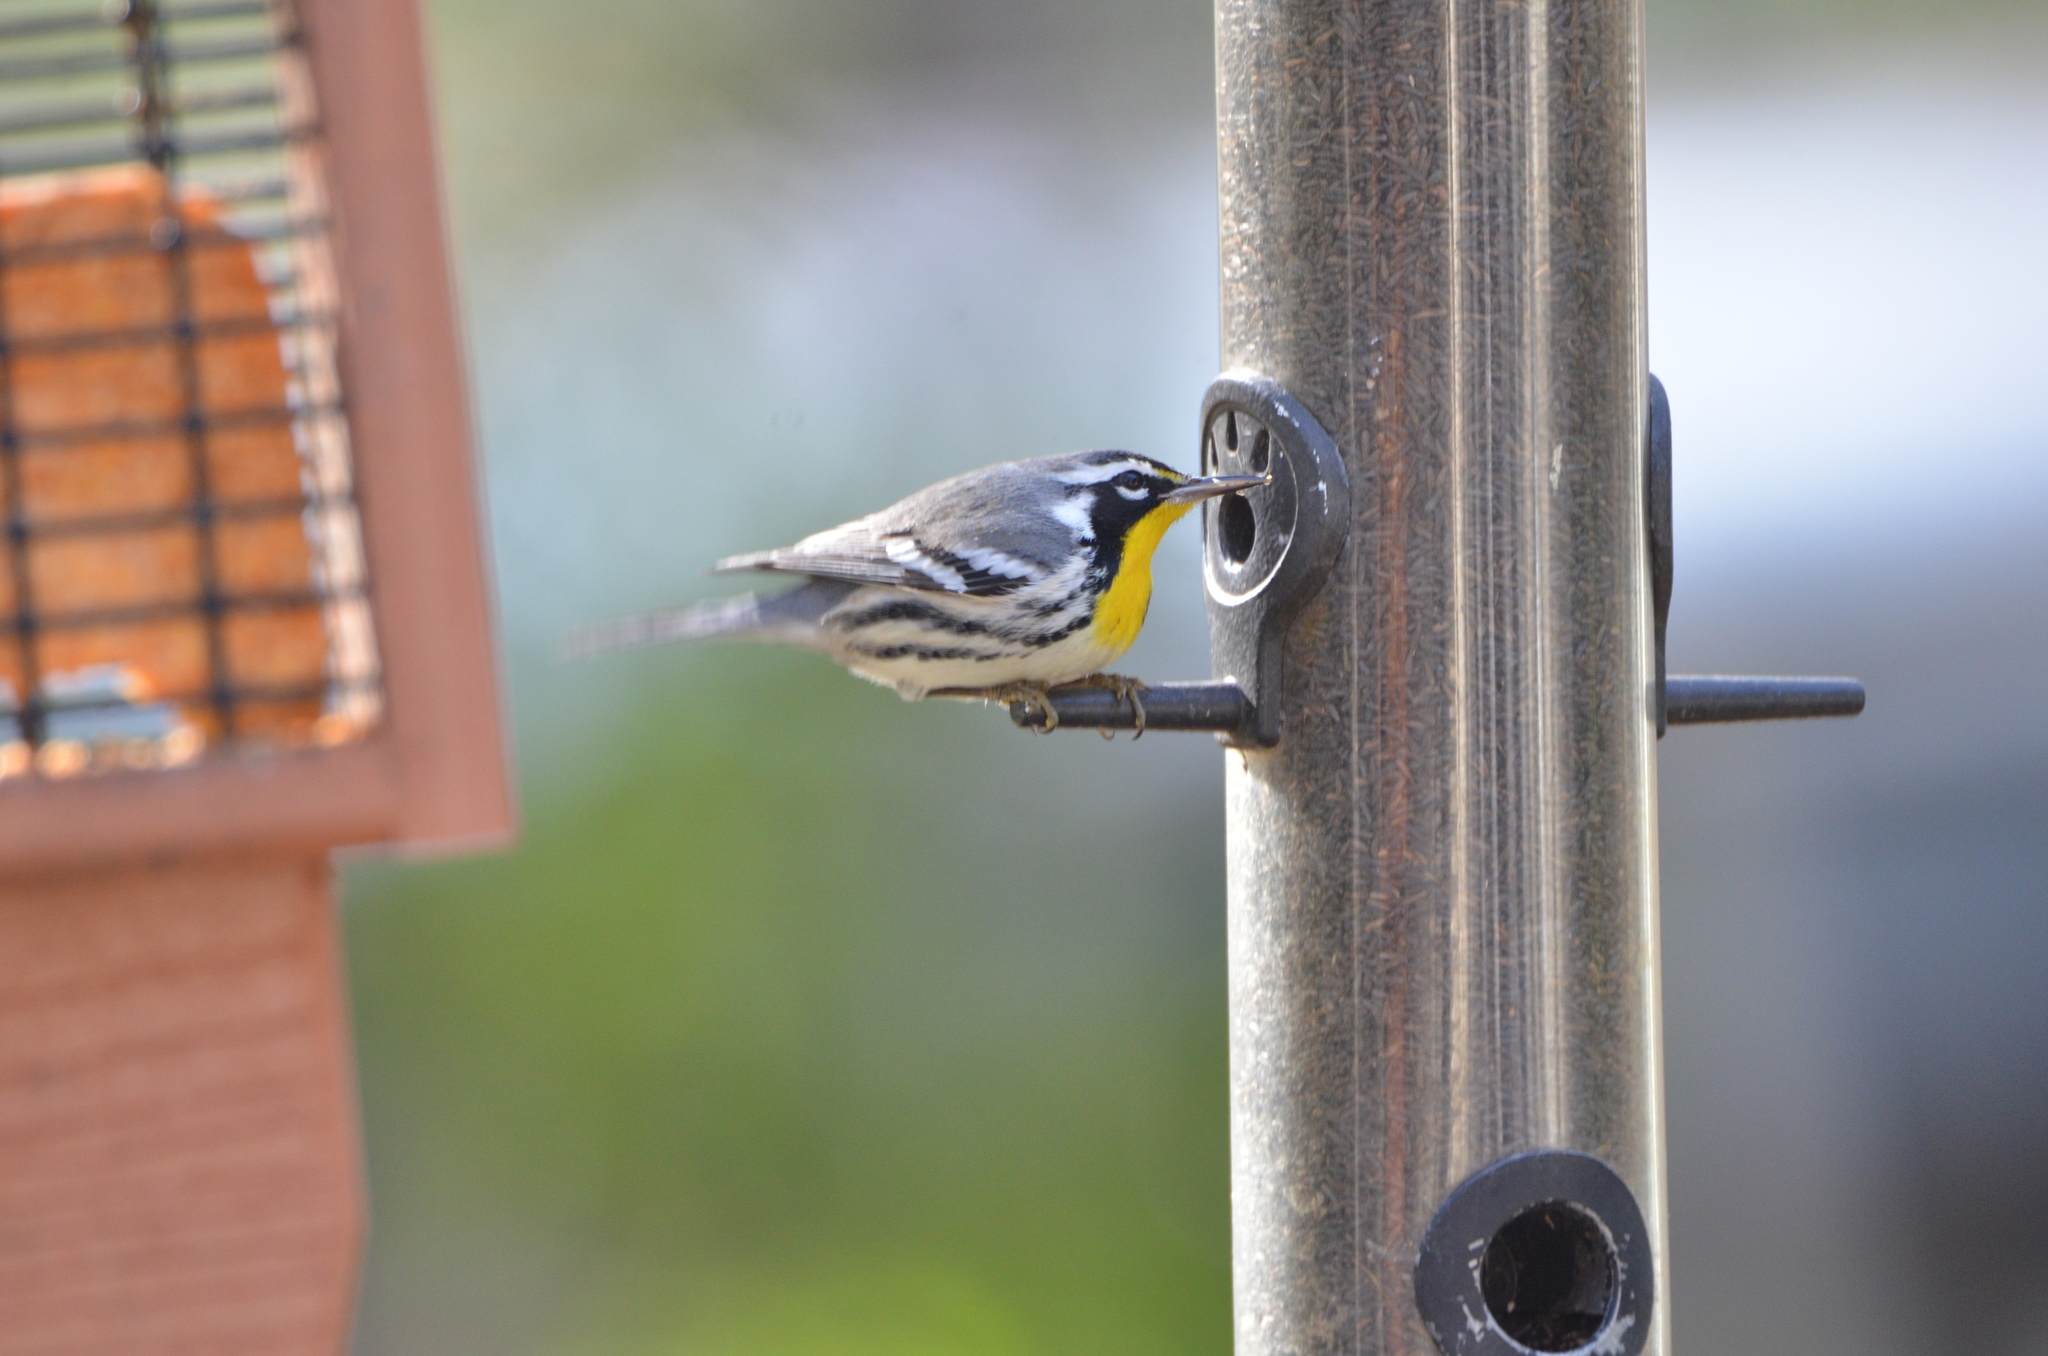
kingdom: Animalia
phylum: Chordata
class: Aves
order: Passeriformes
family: Parulidae
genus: Setophaga
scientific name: Setophaga dominica
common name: Yellow-throated warbler
